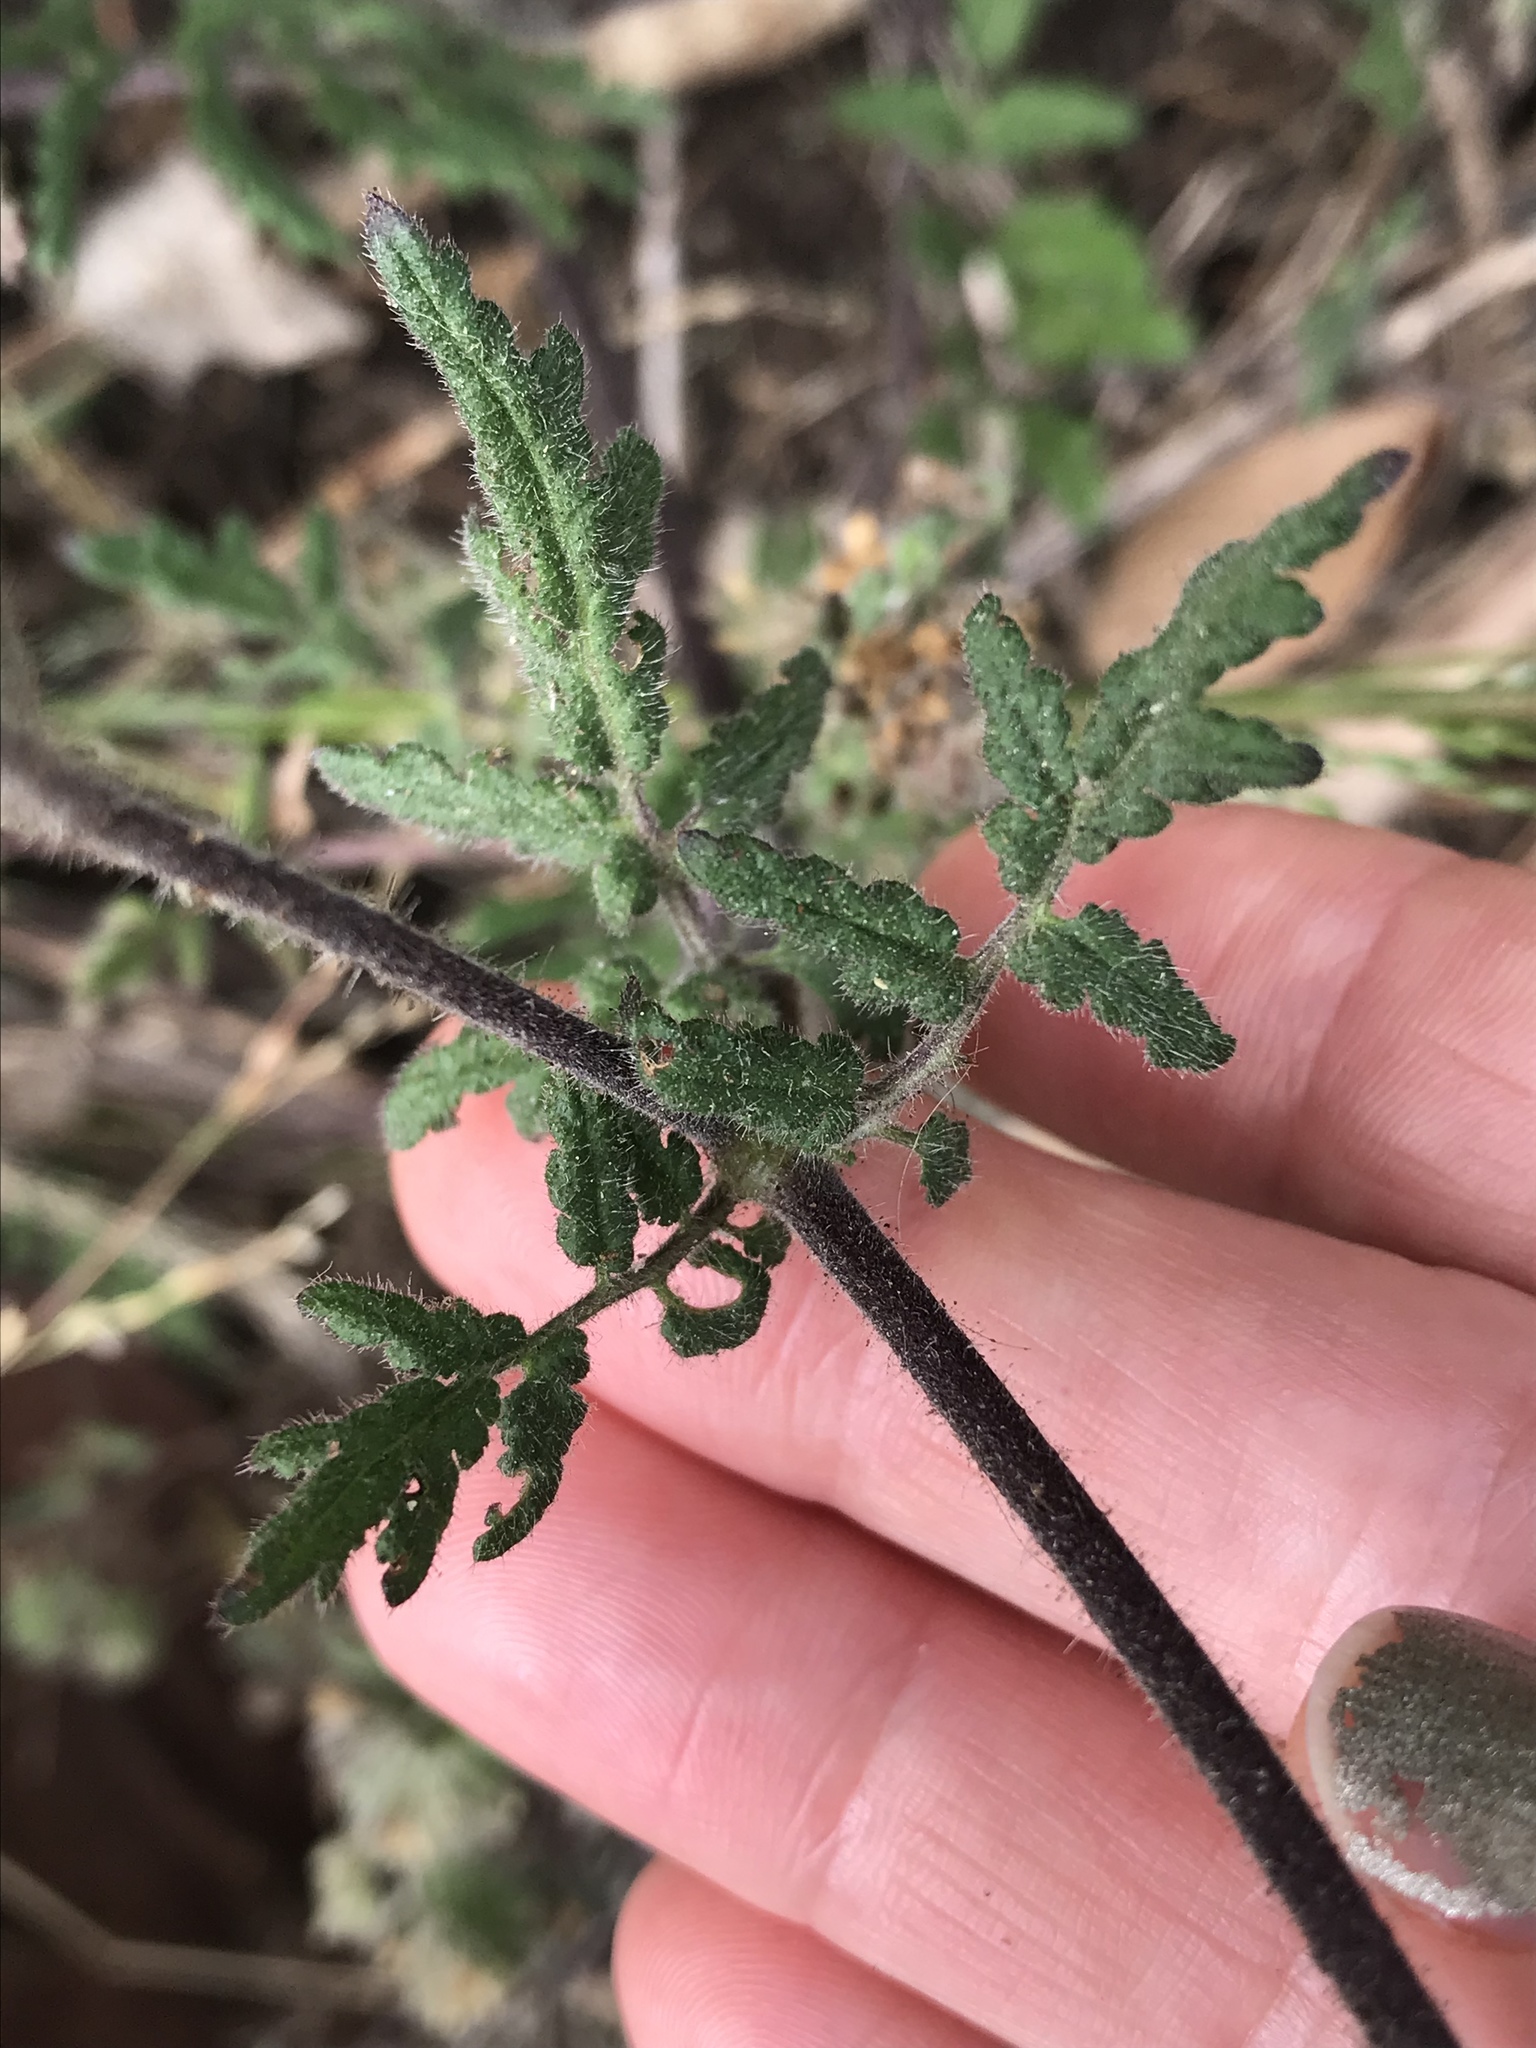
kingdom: Plantae
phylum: Tracheophyta
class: Magnoliopsida
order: Boraginales
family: Hydrophyllaceae
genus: Phacelia
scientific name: Phacelia distans
